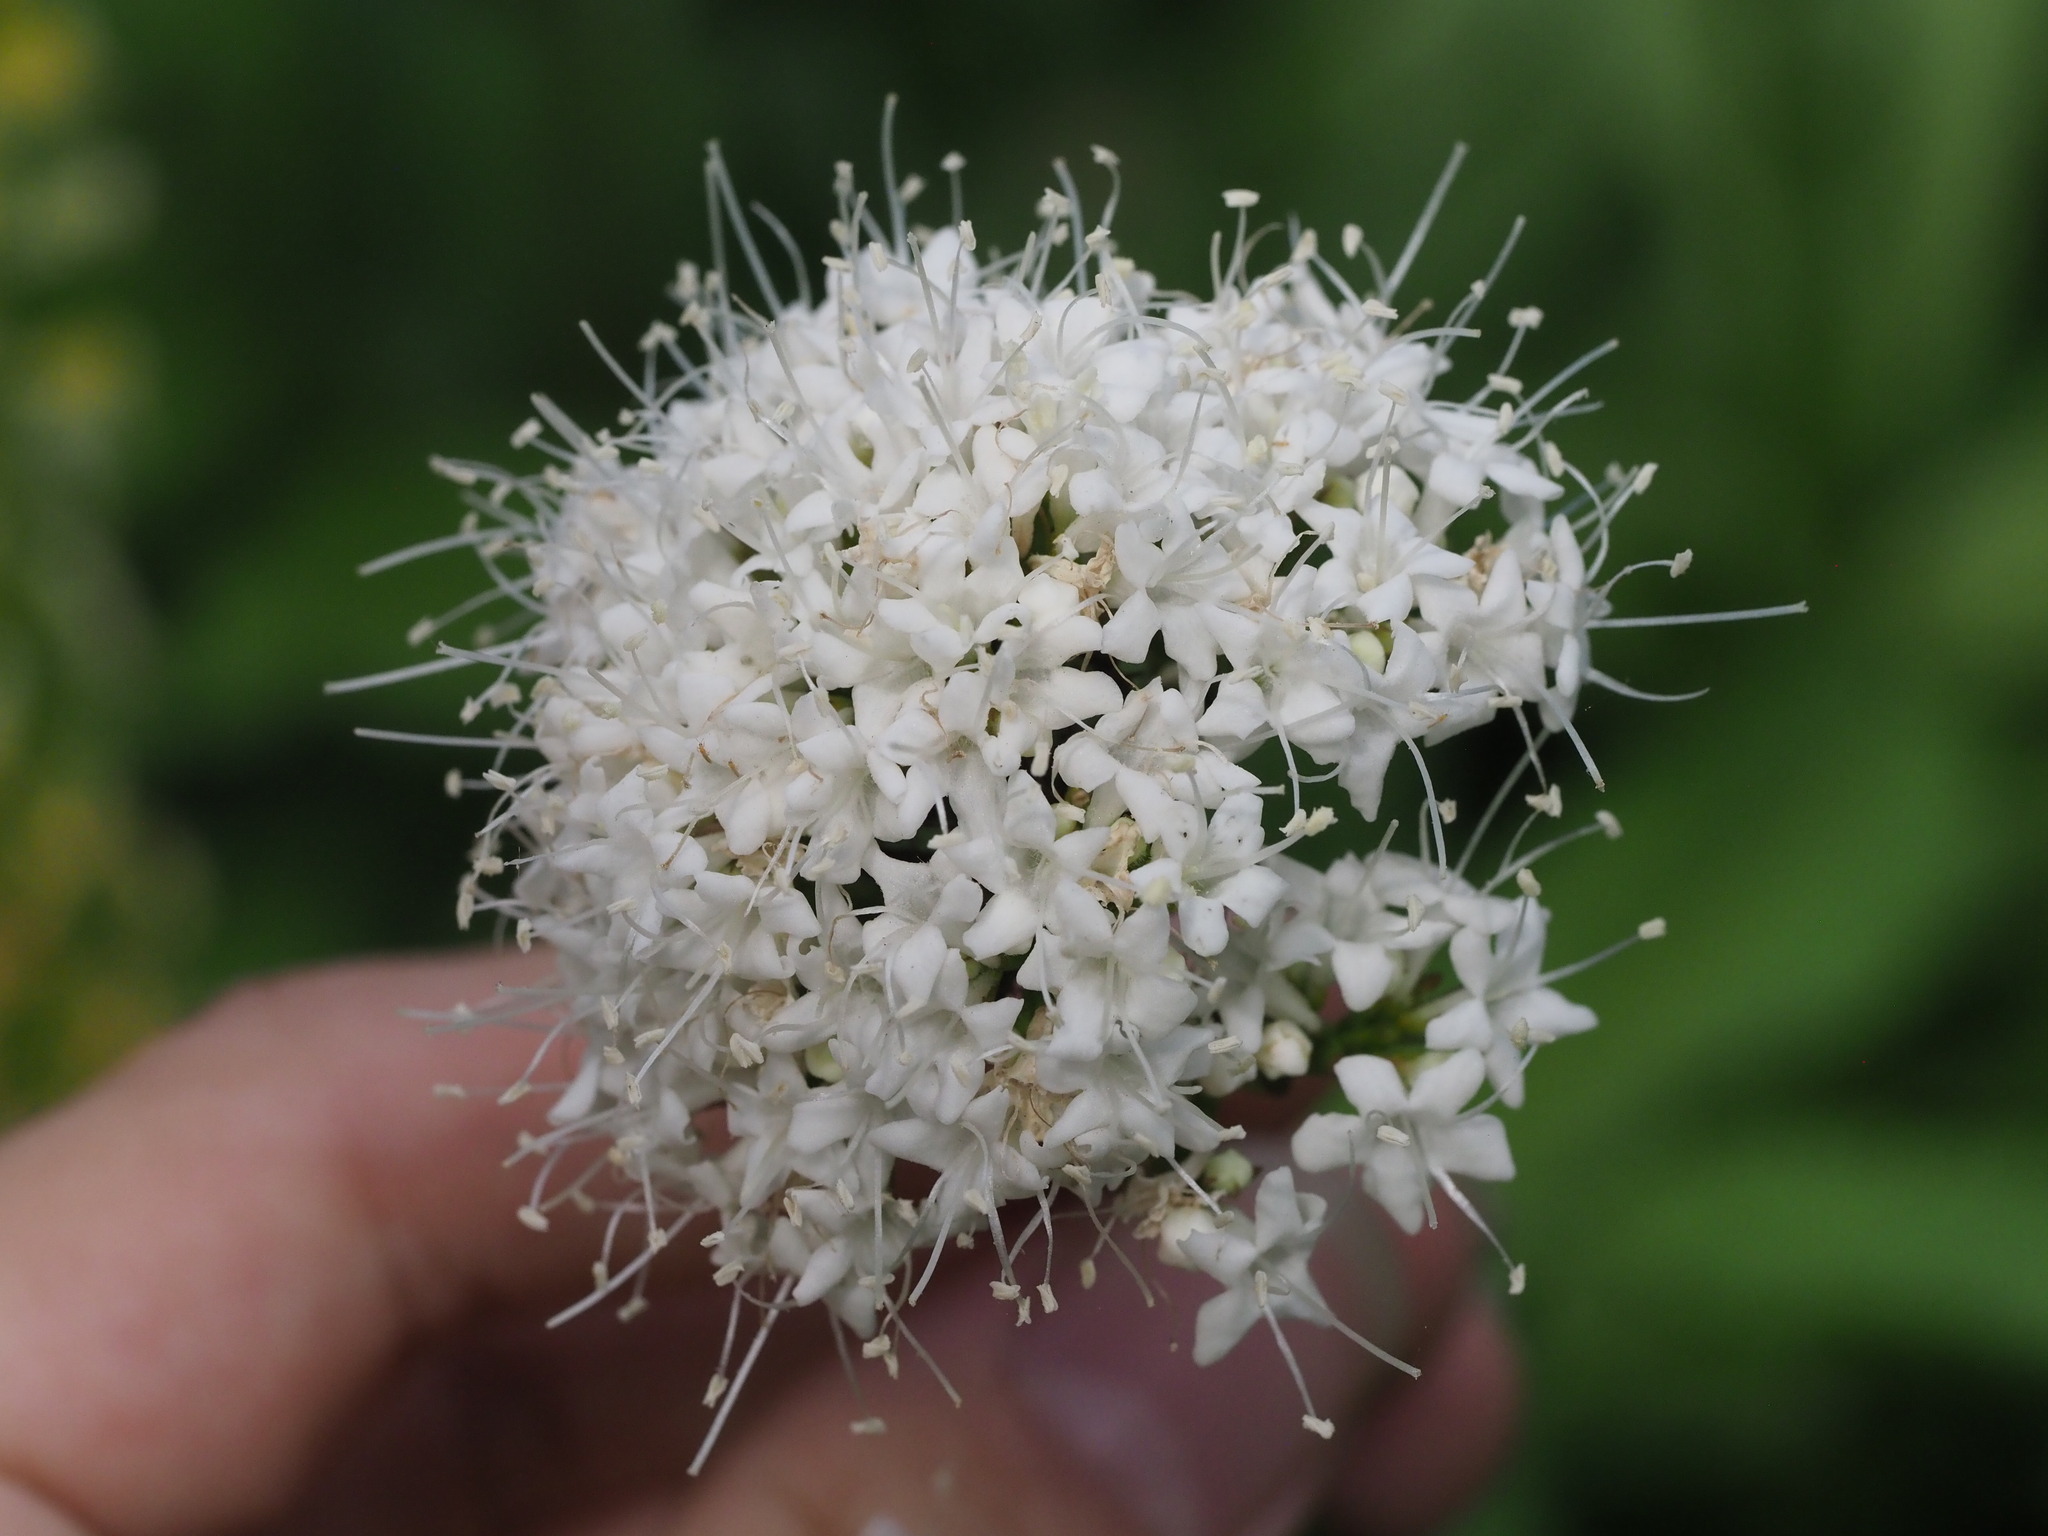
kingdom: Plantae
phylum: Tracheophyta
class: Magnoliopsida
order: Dipsacales
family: Caprifoliaceae
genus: Valeriana
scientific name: Valeriana sitchensis
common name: Pacific valerian
